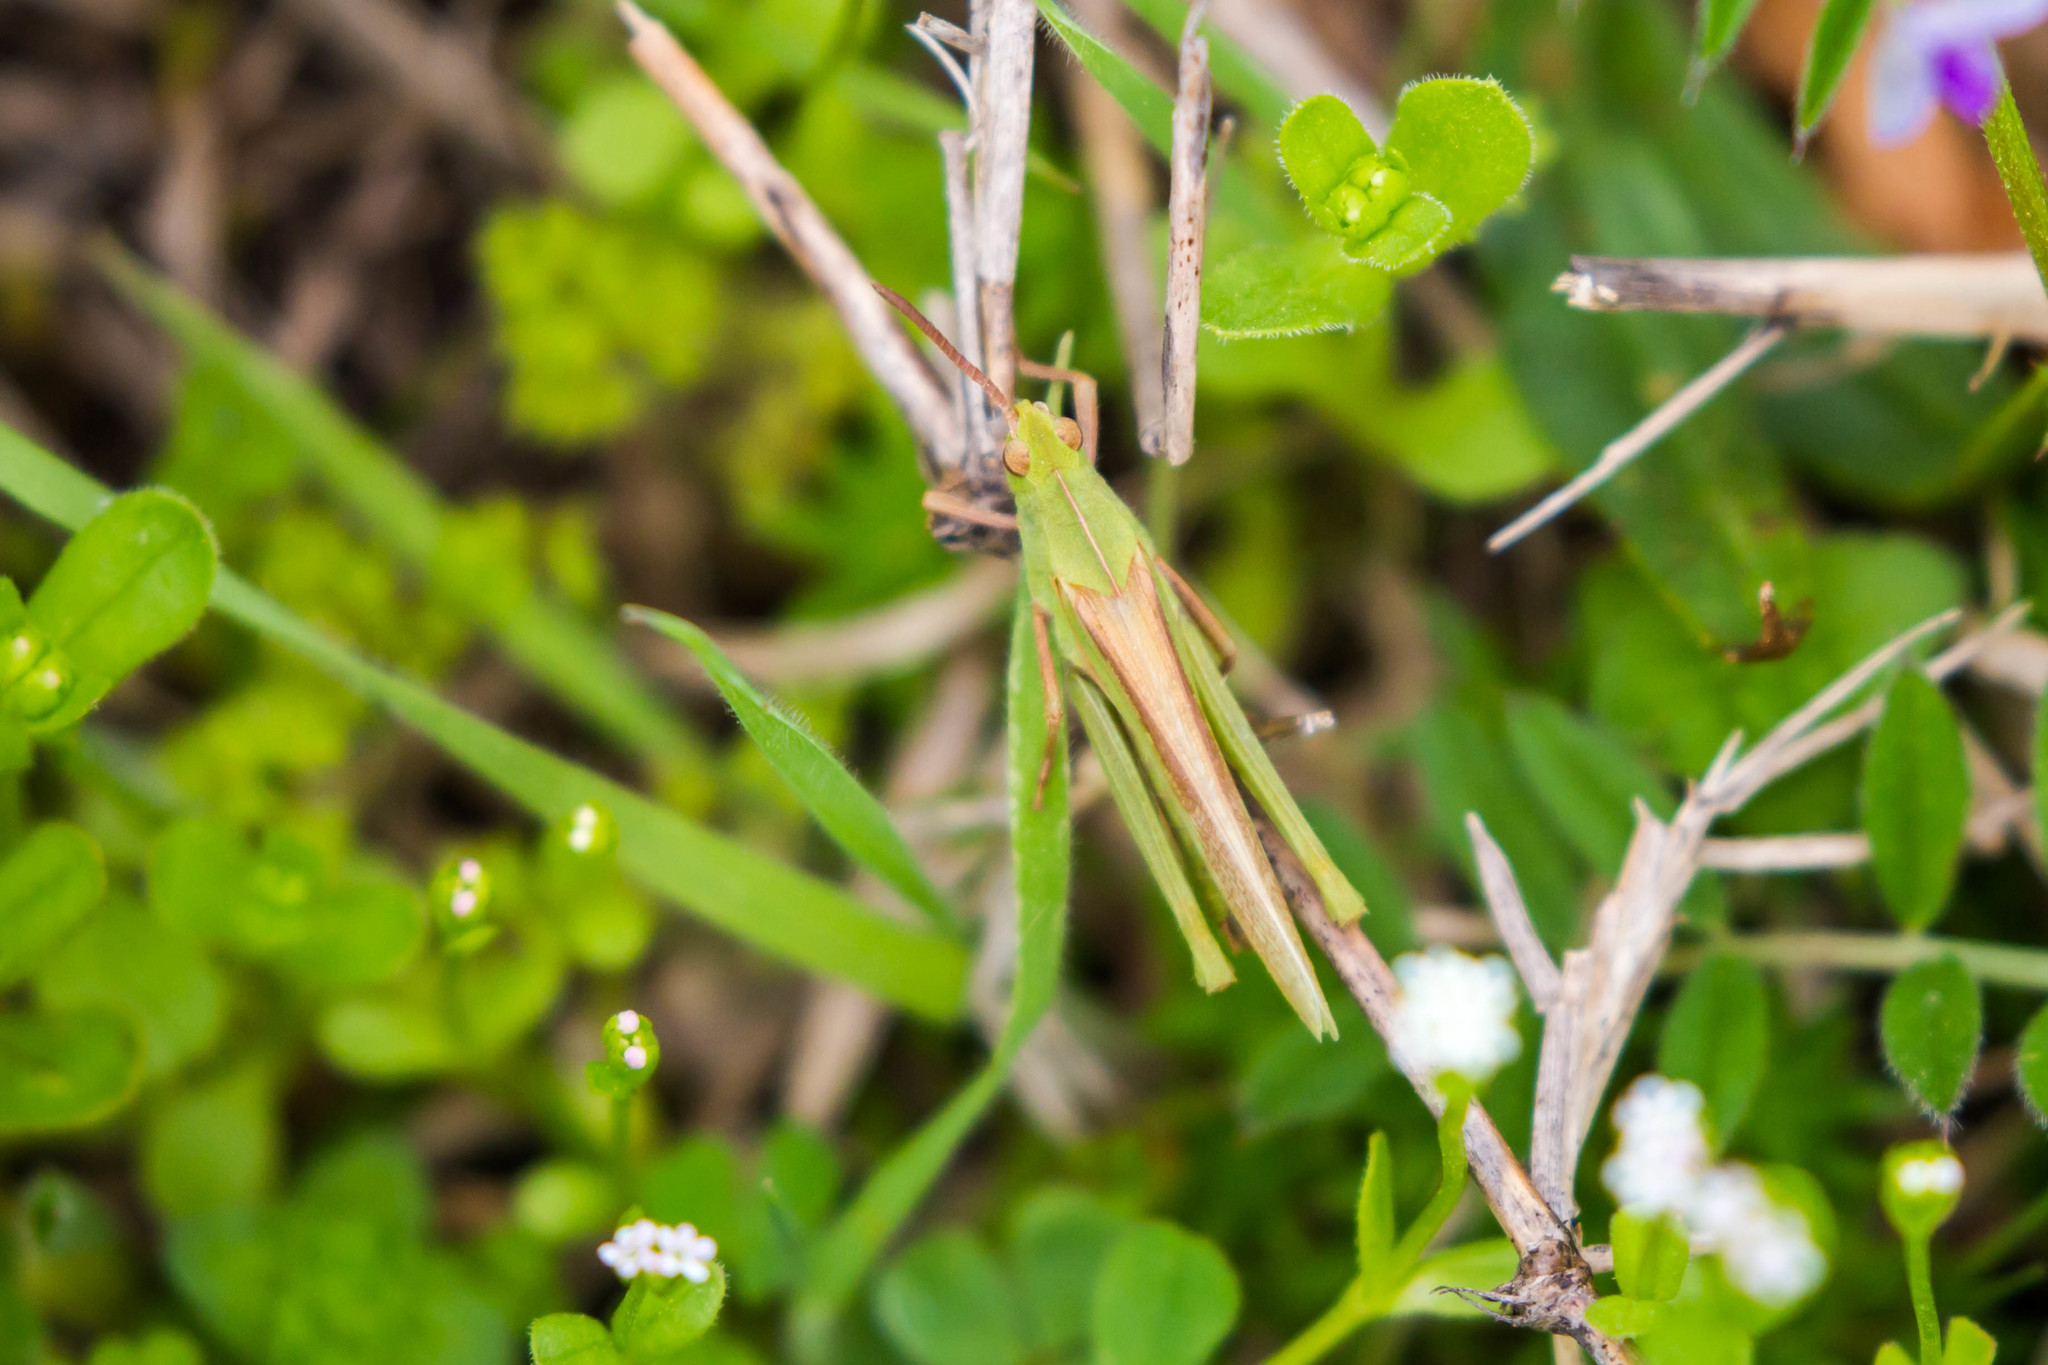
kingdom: Animalia
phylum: Arthropoda
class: Insecta
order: Orthoptera
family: Acrididae
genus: Chortophaga
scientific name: Chortophaga viridifasciata
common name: Green-striped grasshopper
